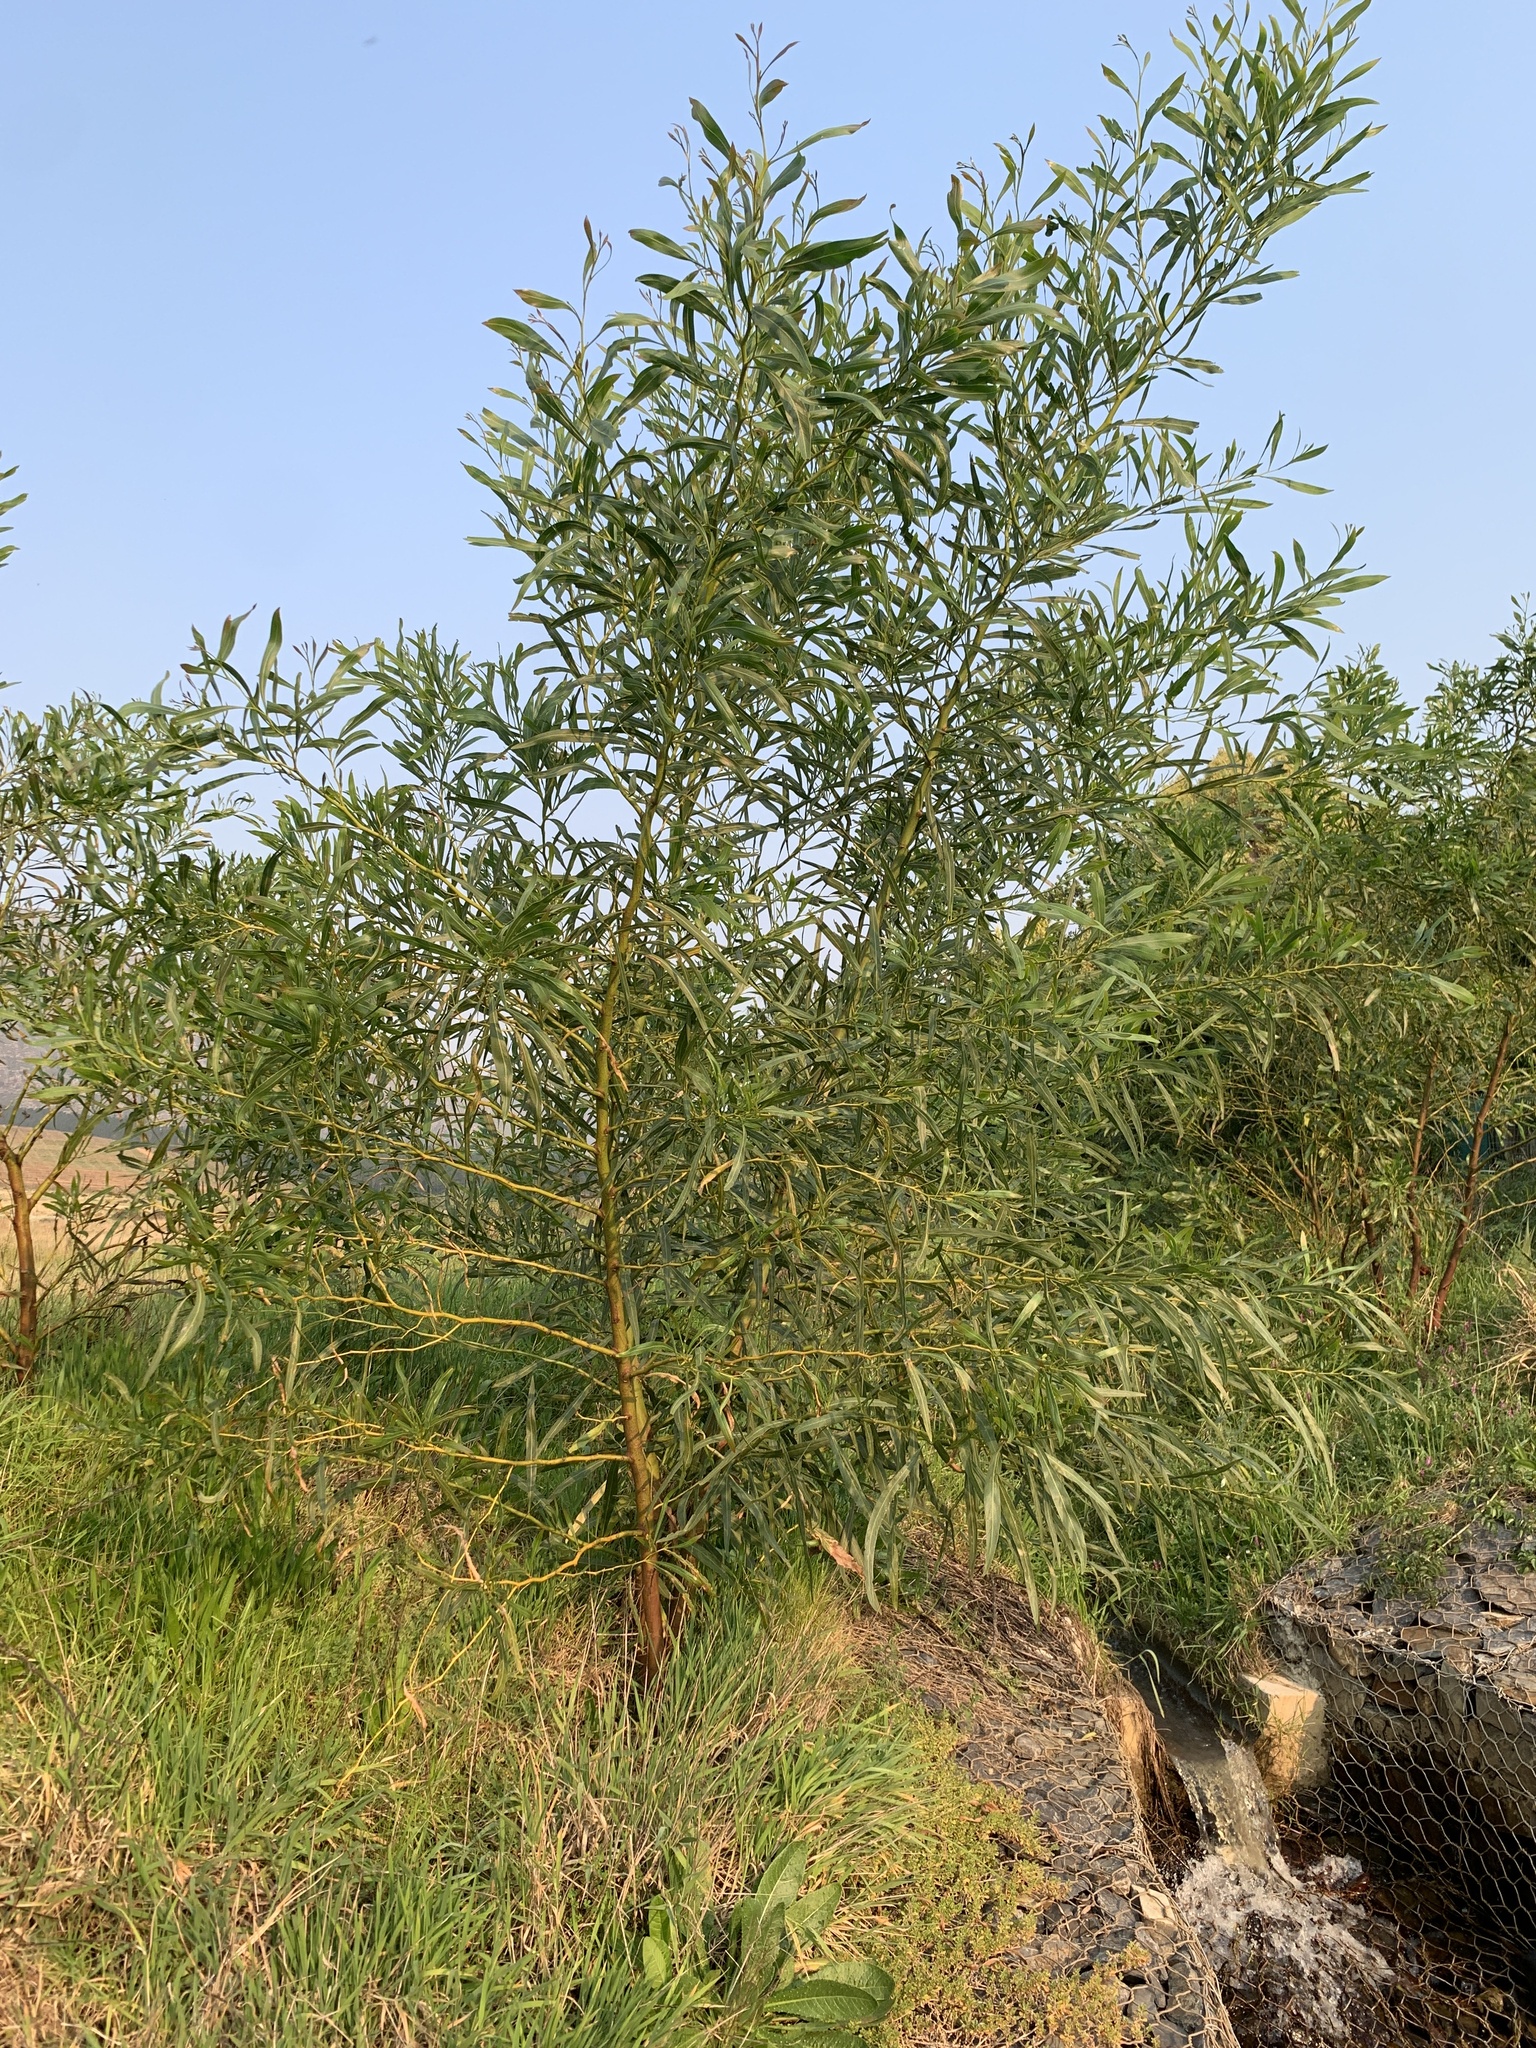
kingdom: Plantae
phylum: Tracheophyta
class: Magnoliopsida
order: Fabales
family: Fabaceae
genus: Acacia
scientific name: Acacia saligna
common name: Orange wattle
